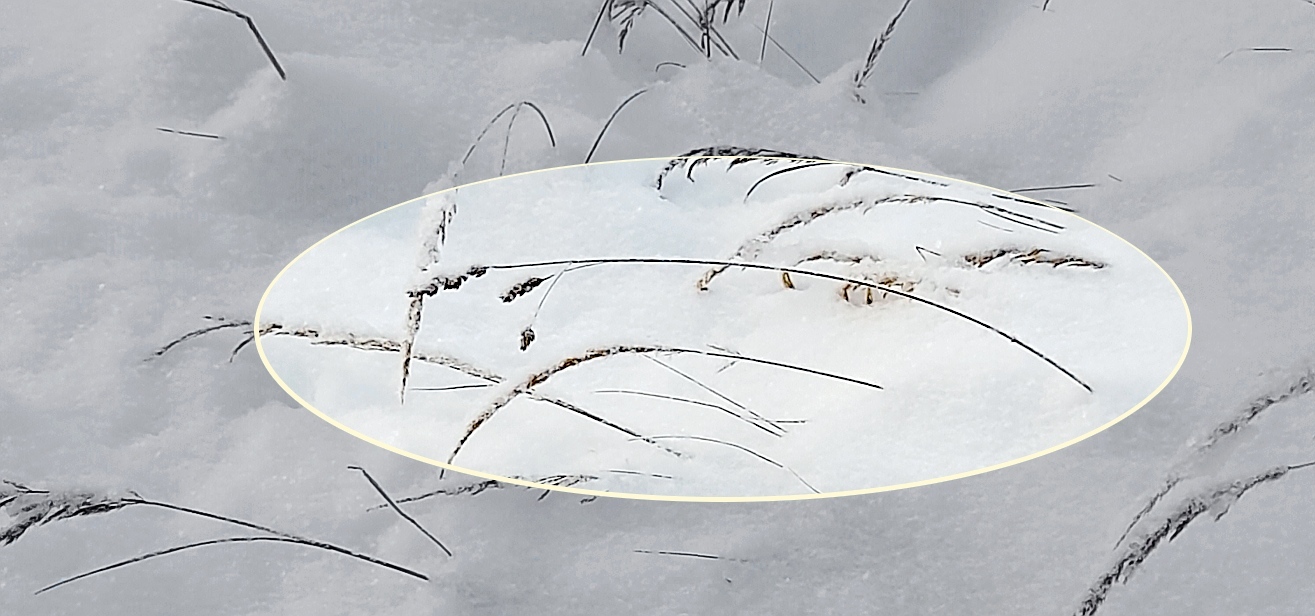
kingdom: Plantae
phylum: Tracheophyta
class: Liliopsida
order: Poales
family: Poaceae
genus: Dactylis
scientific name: Dactylis glomerata
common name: Orchardgrass
